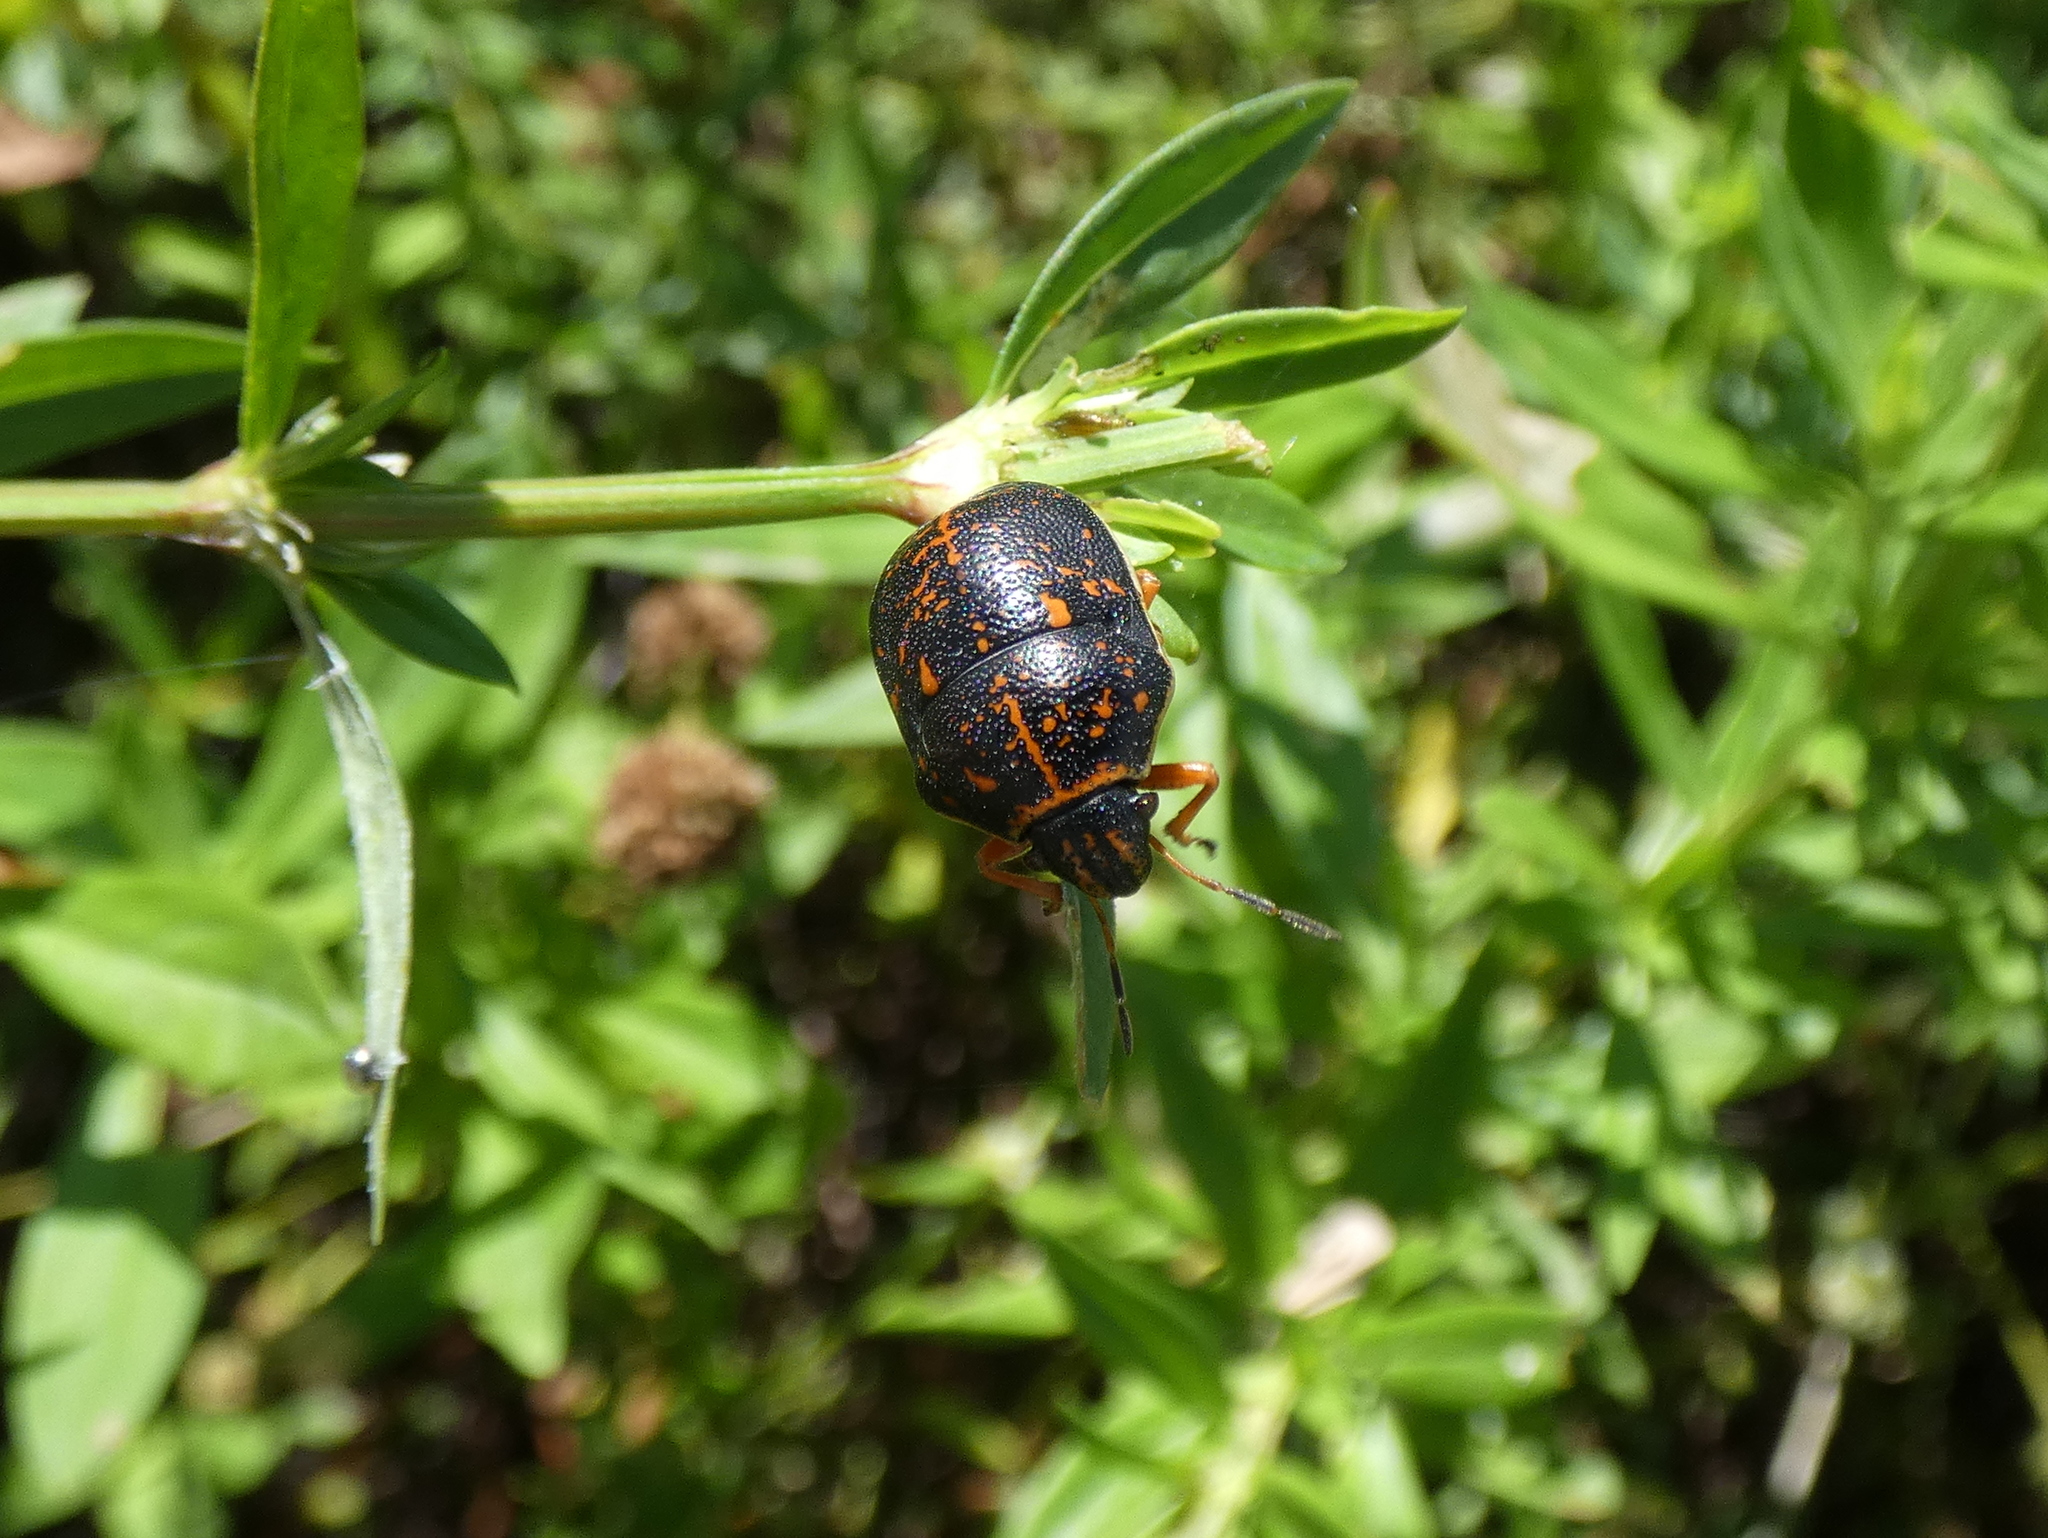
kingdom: Animalia
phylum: Arthropoda
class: Insecta
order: Hemiptera
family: Scutelleridae
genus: Orsilochides
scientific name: Orsilochides guttata
